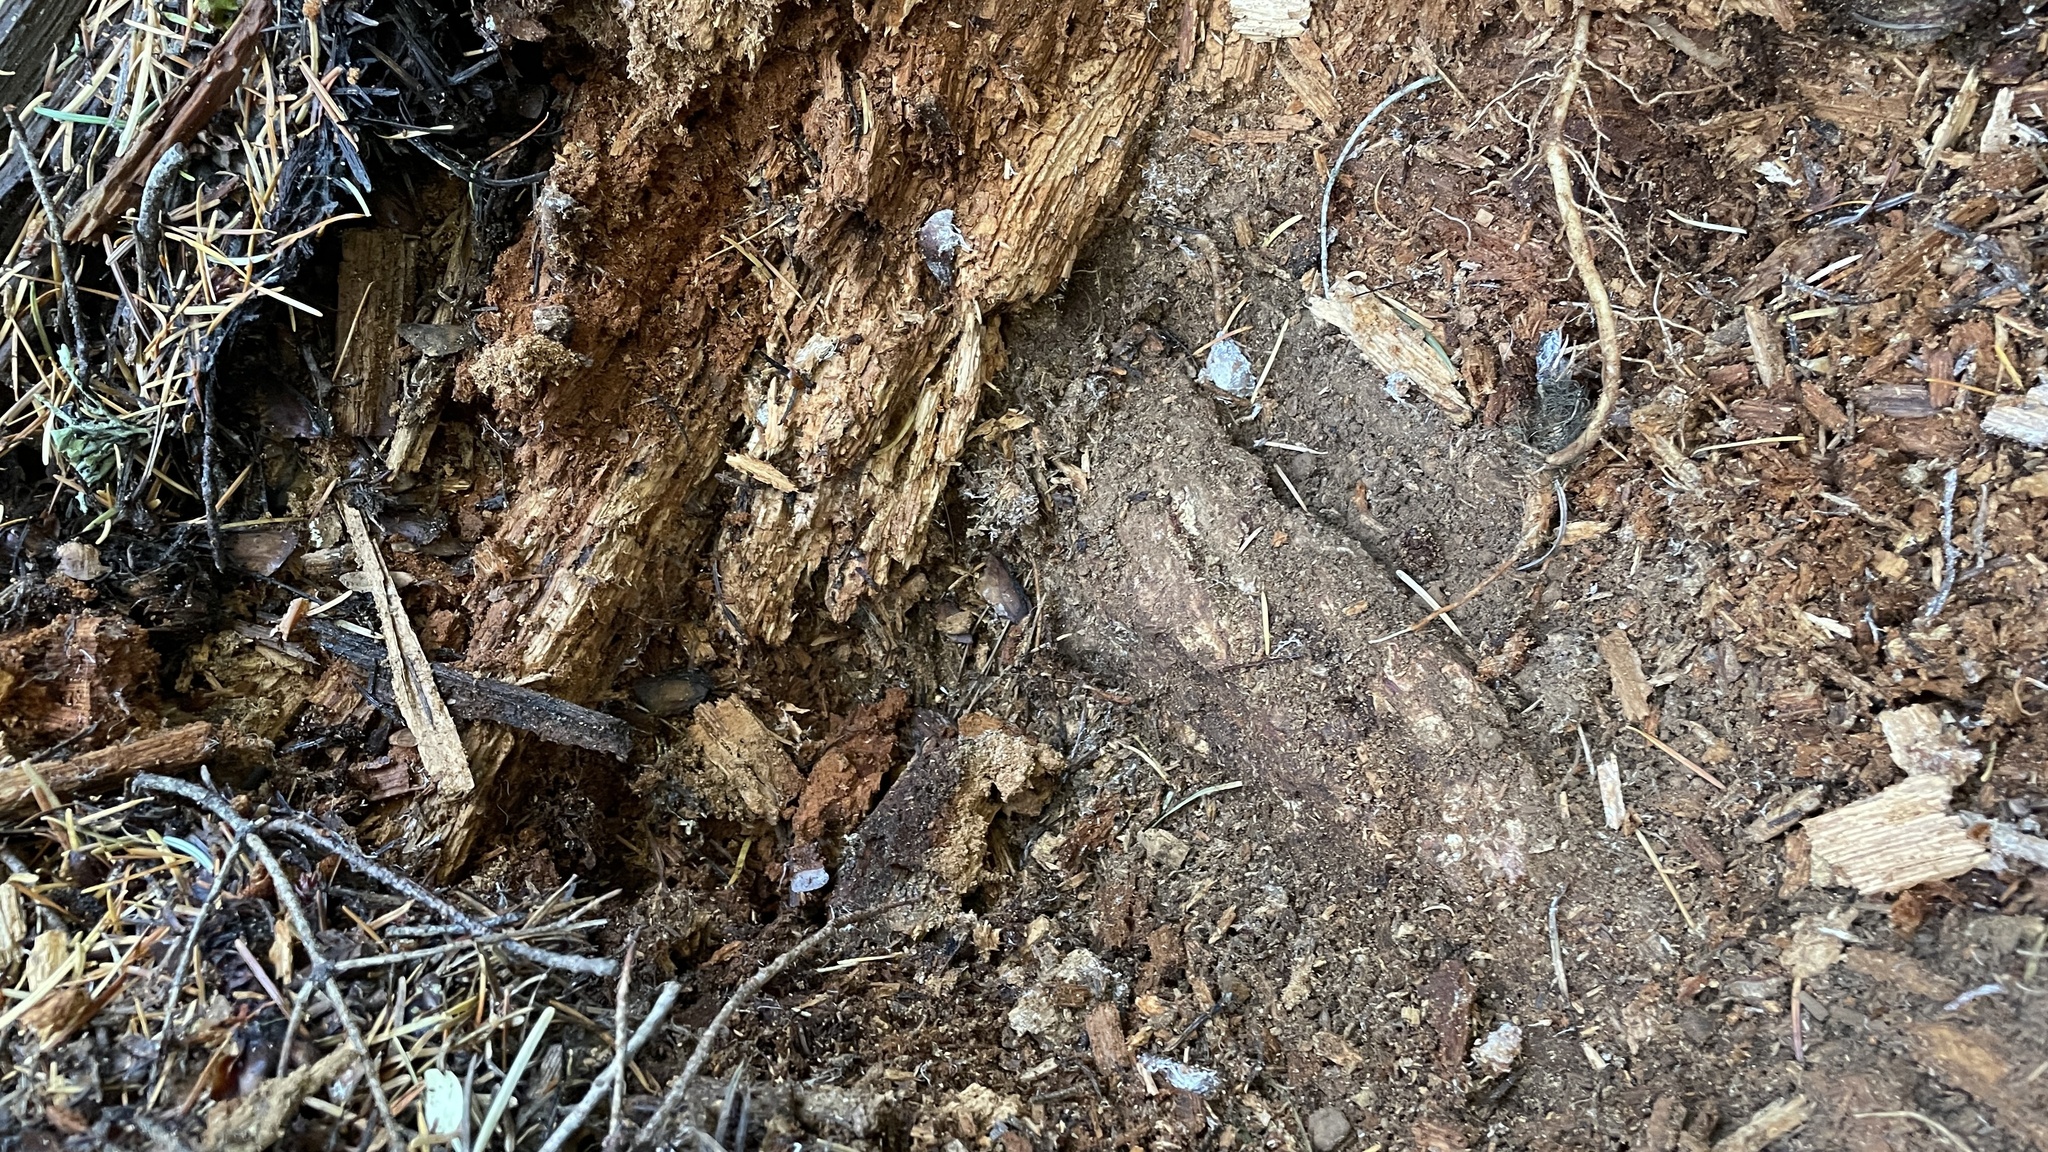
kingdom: Fungi
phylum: Ascomycota
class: Pezizomycetes
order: Pezizales
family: Tuberaceae
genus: Tuber
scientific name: Tuber anniae
